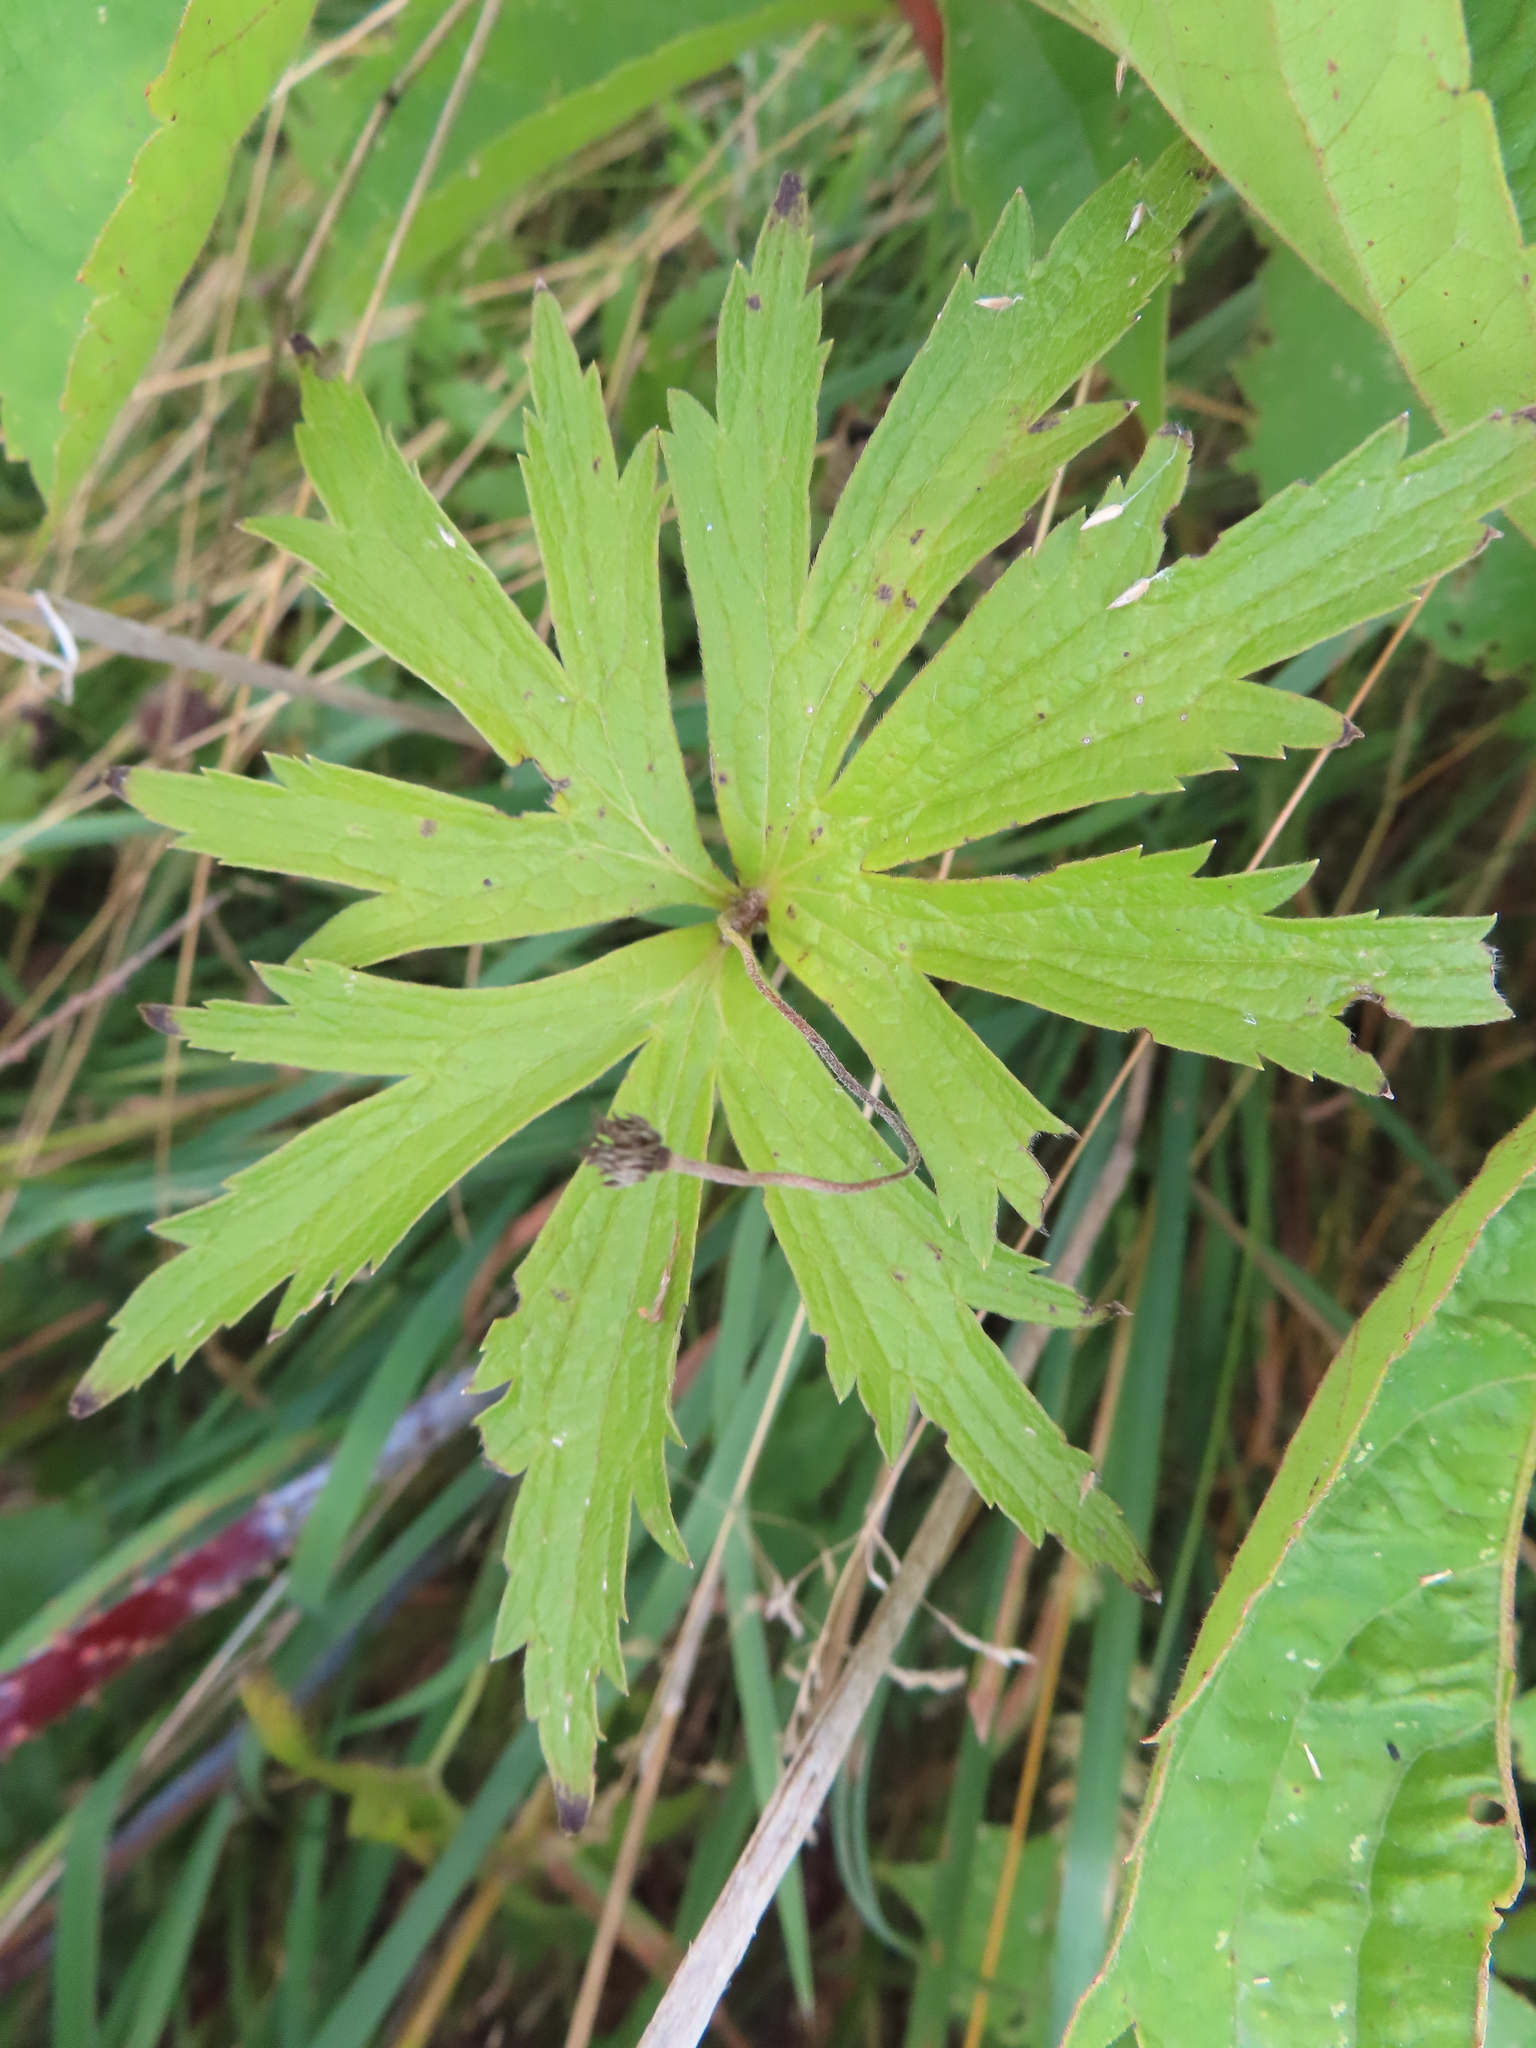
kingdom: Plantae
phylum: Tracheophyta
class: Magnoliopsida
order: Ranunculales
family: Ranunculaceae
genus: Anemonastrum
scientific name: Anemonastrum canadense
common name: Canada anemone
